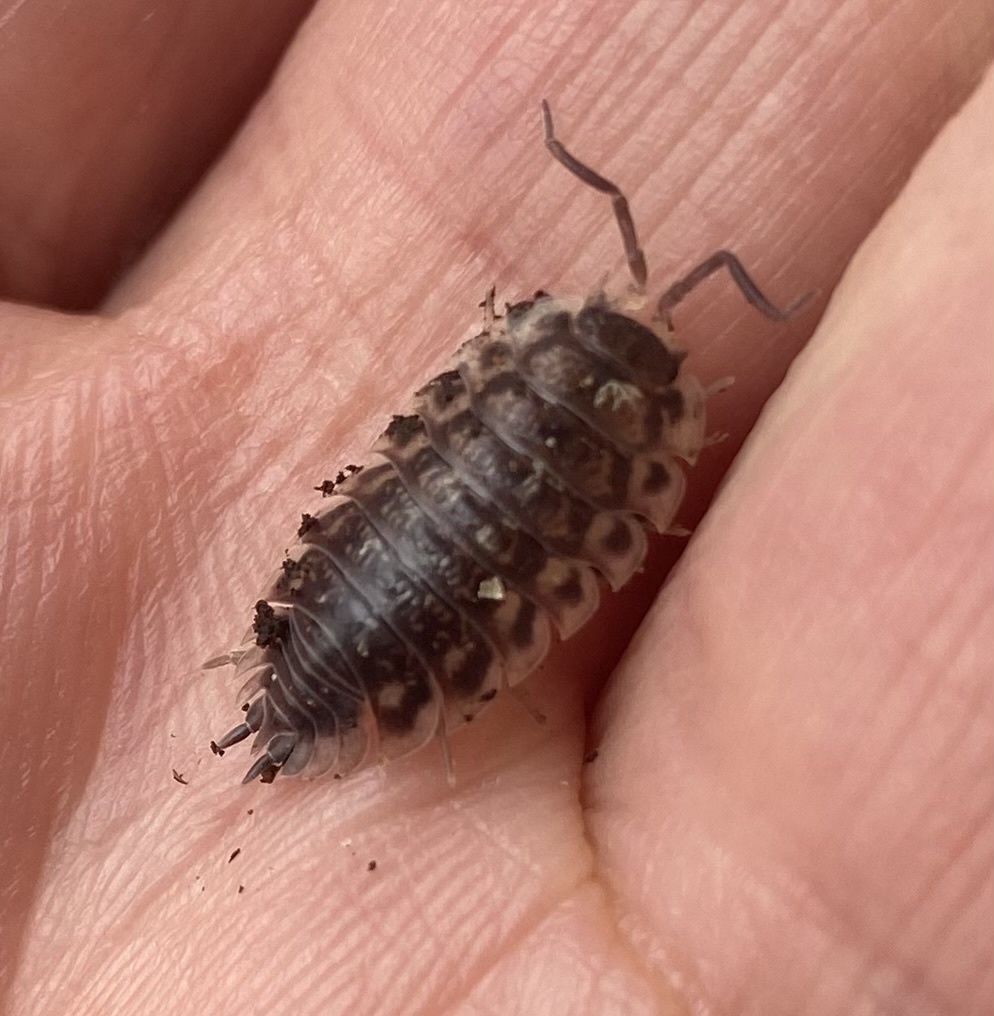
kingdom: Animalia
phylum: Arthropoda
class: Malacostraca
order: Isopoda
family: Oniscidae
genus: Oniscus
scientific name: Oniscus asellus
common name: Common shiny woodlouse
